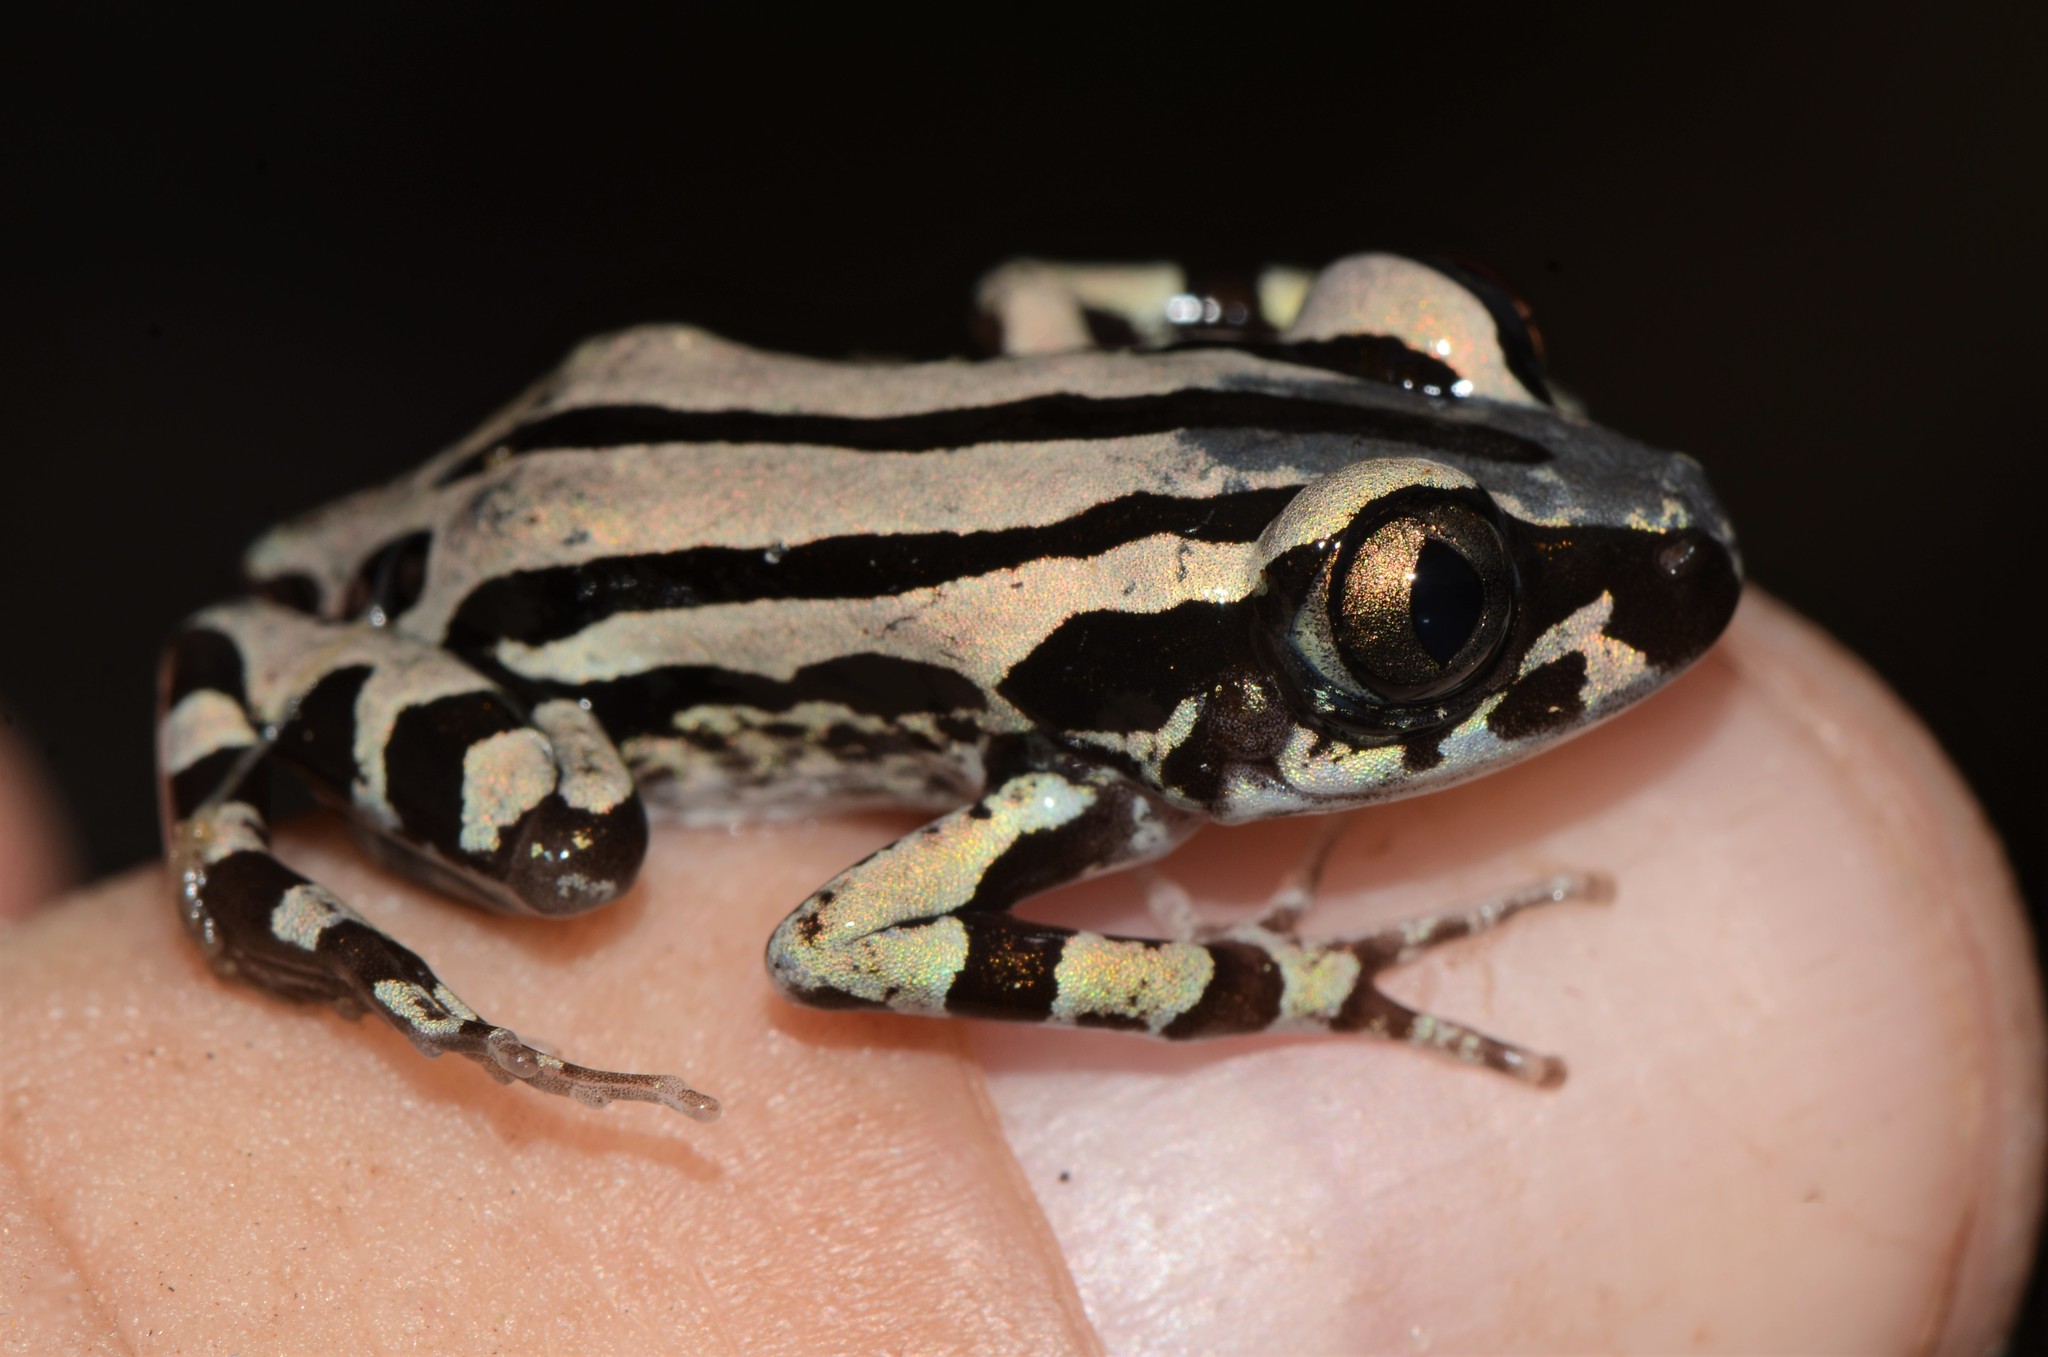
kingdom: Animalia
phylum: Chordata
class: Amphibia
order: Anura
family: Hyperoliidae
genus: Kassina
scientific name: Kassina senegalensis
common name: Senegal land frog
